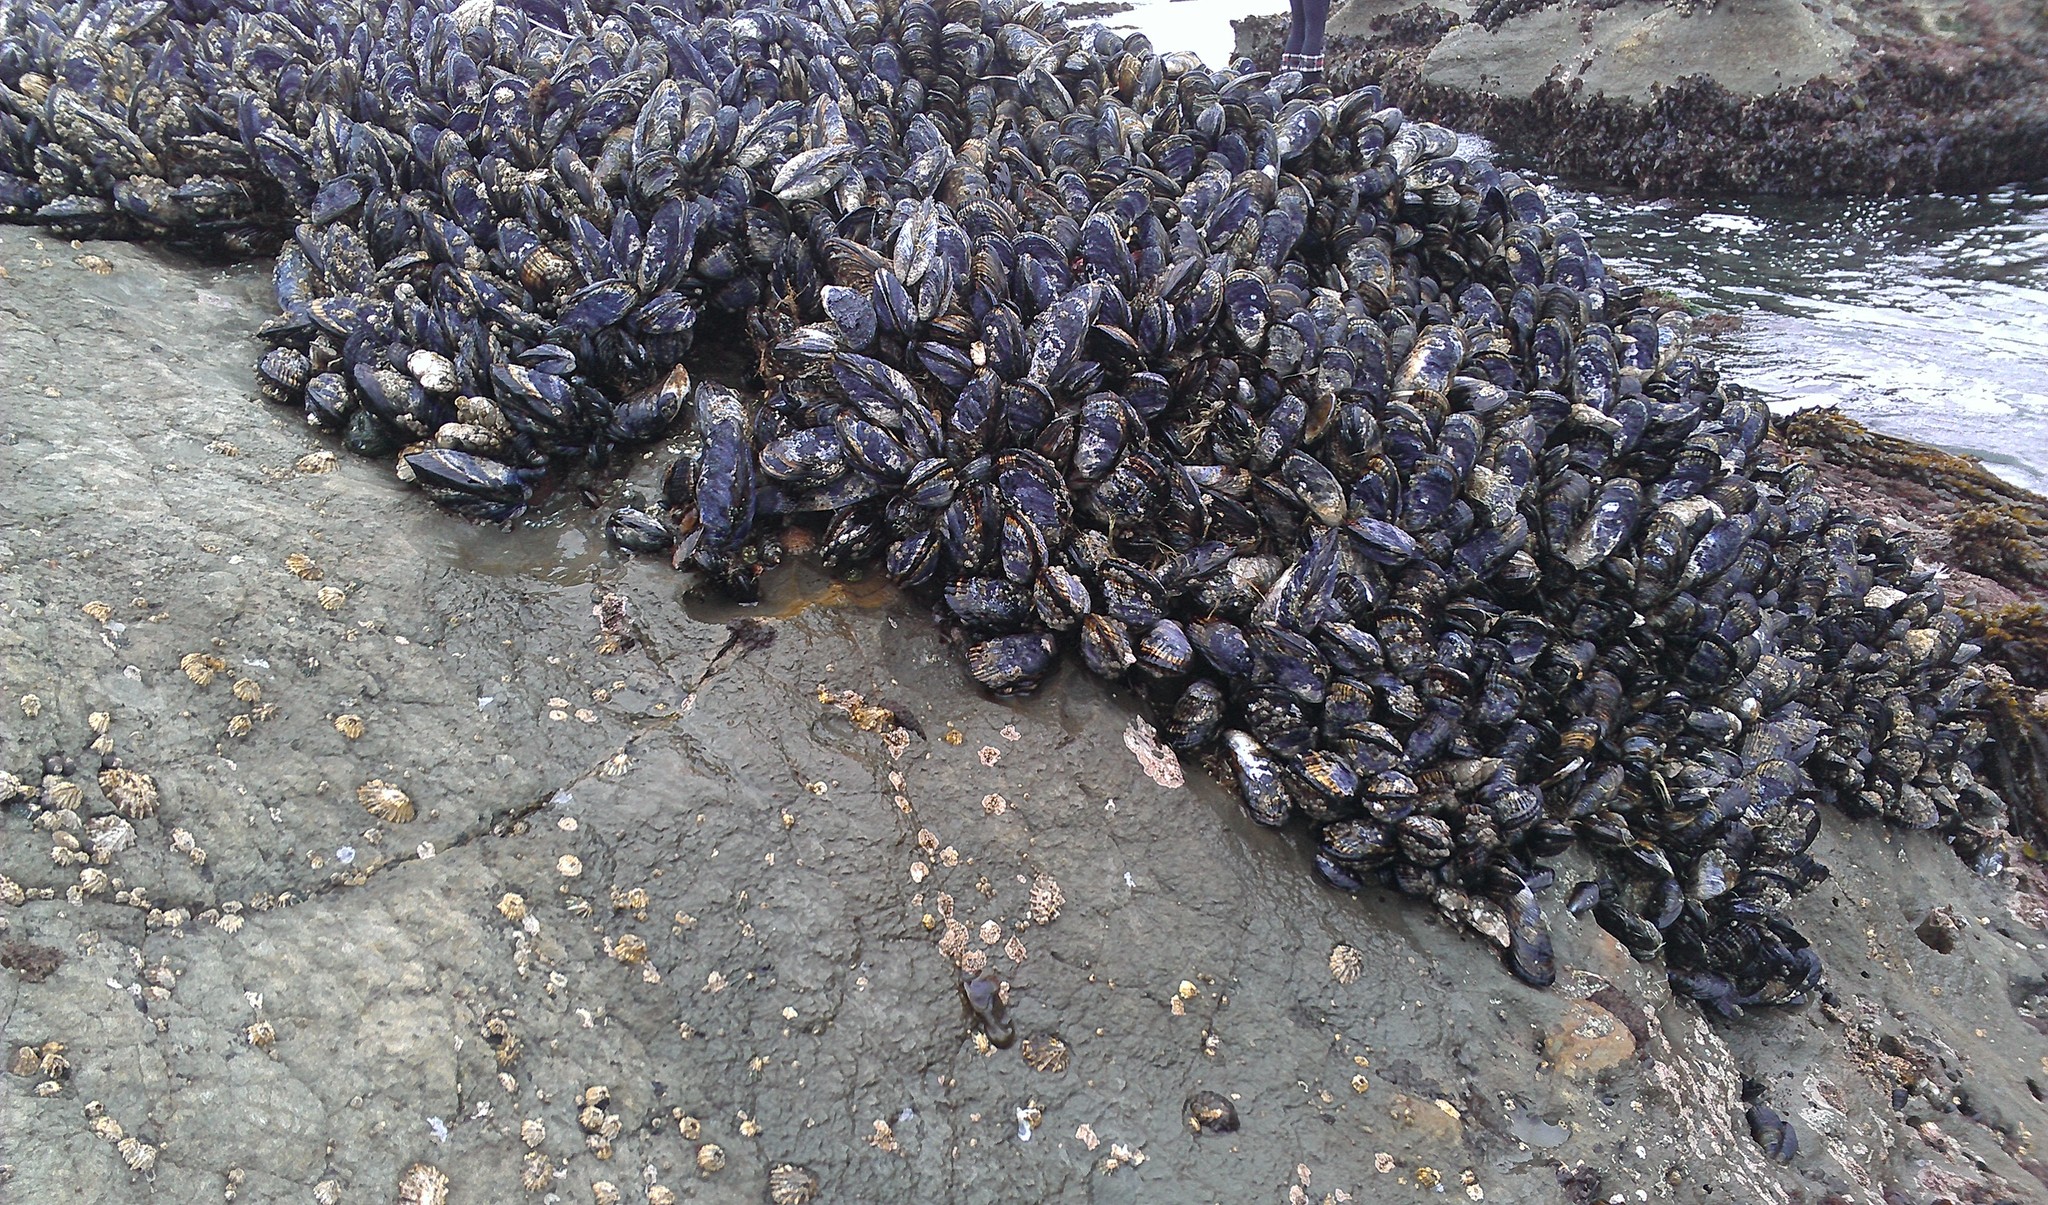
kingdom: Animalia
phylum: Mollusca
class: Bivalvia
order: Mytilida
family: Mytilidae
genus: Mytilus
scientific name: Mytilus californianus
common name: California mussel
